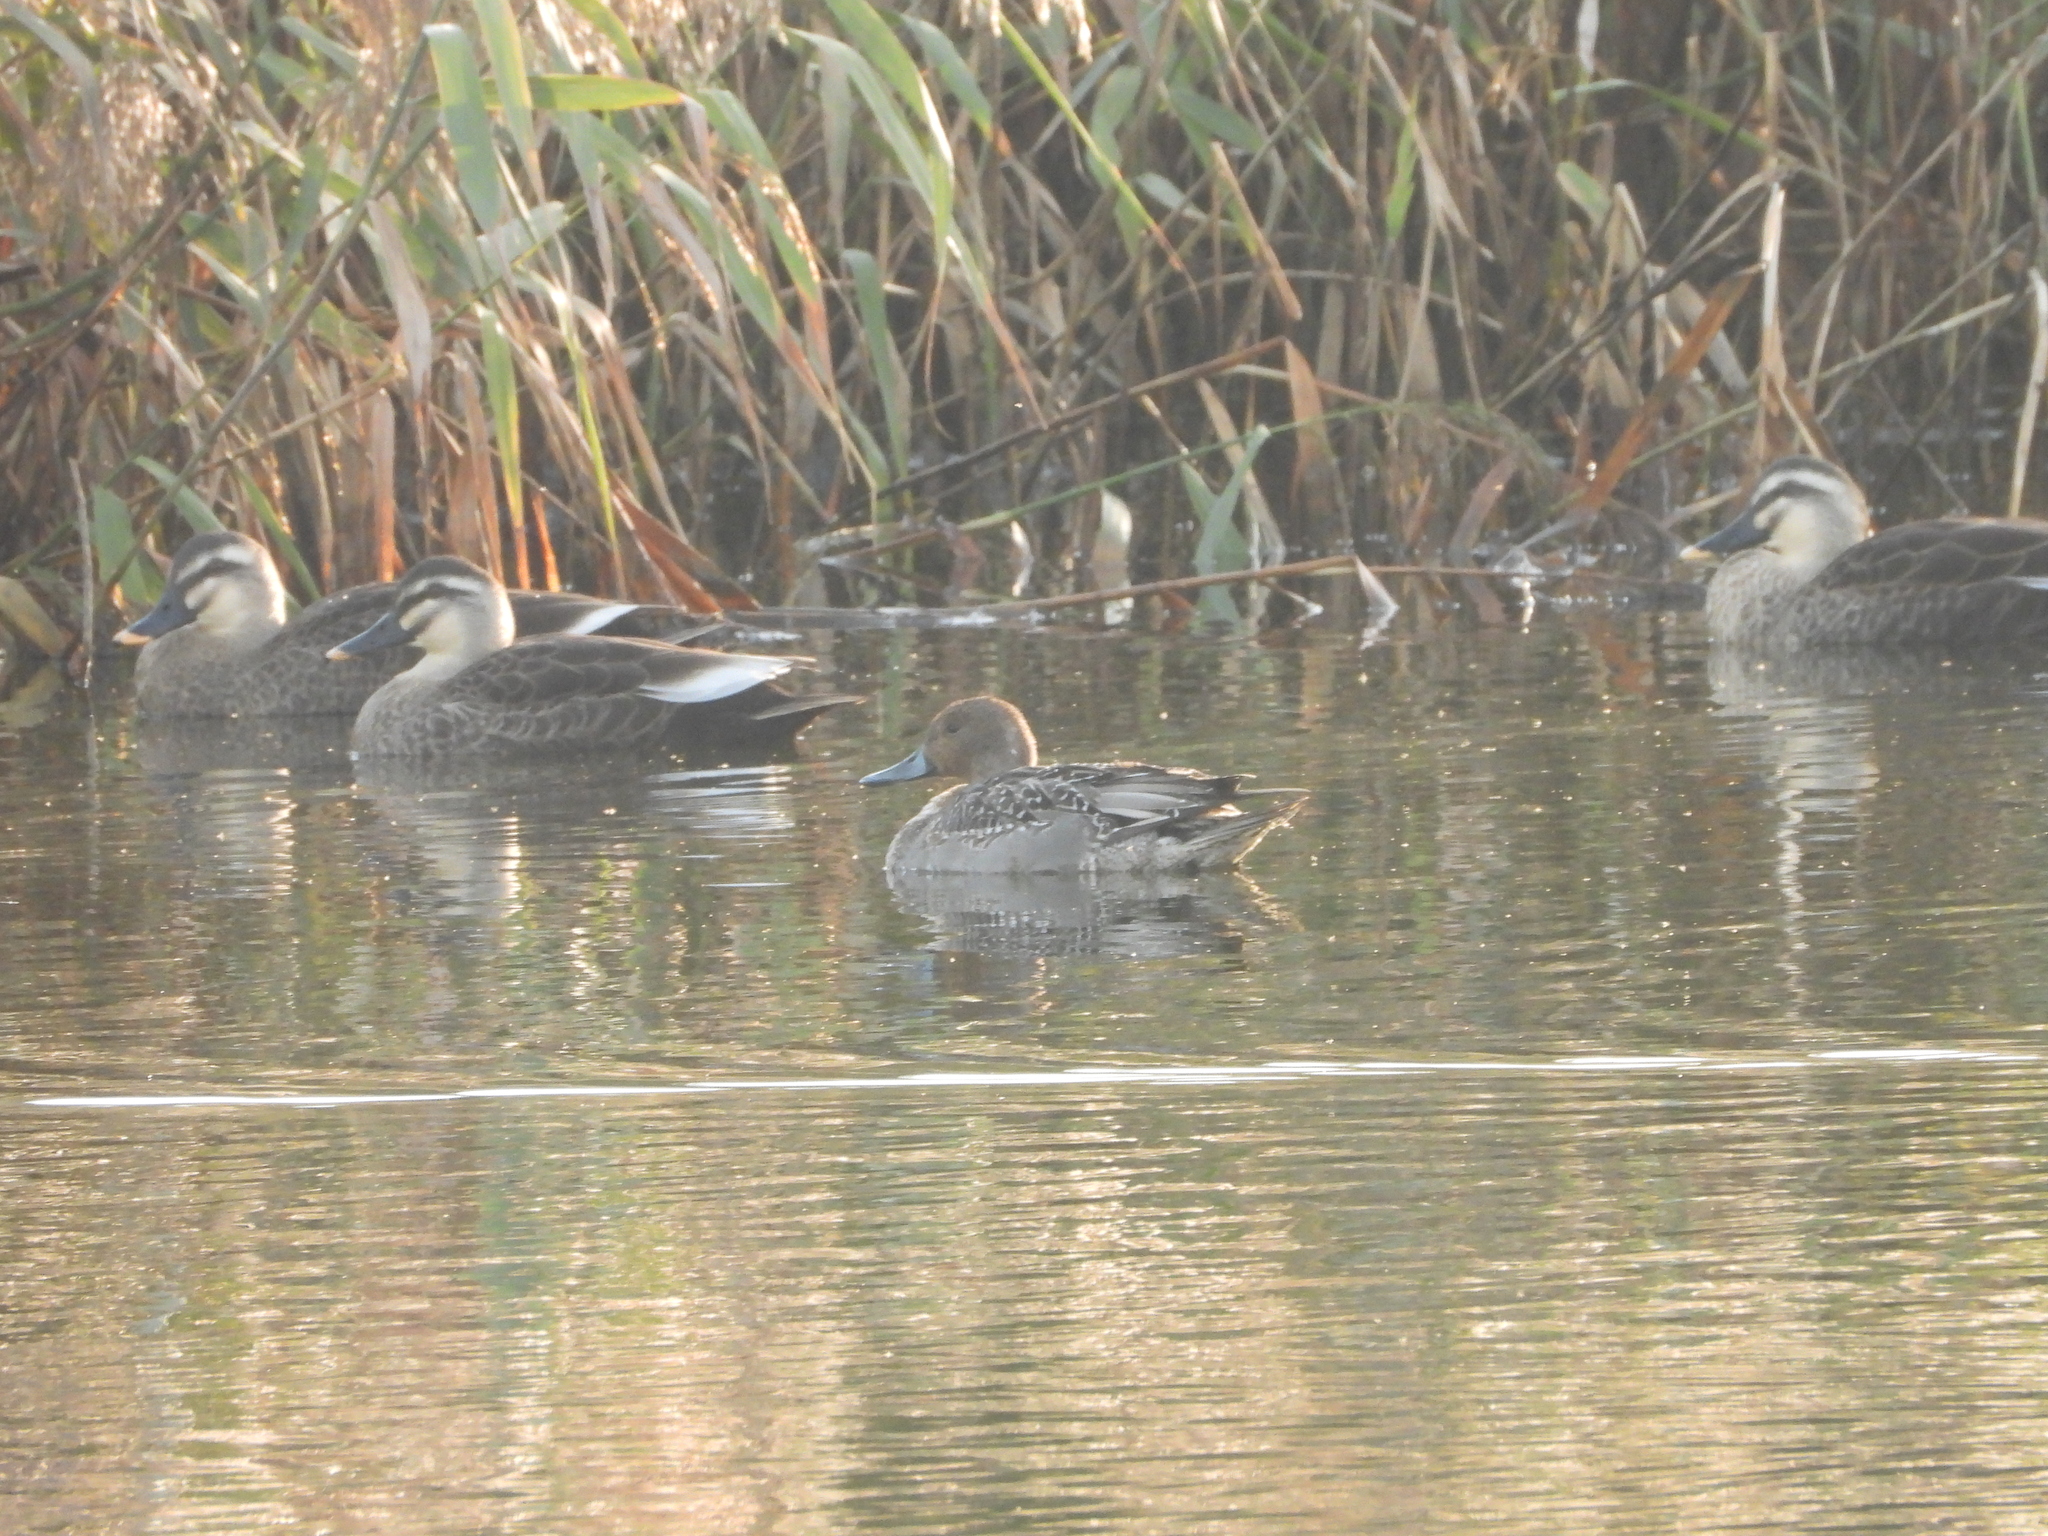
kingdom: Animalia
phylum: Chordata
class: Aves
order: Anseriformes
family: Anatidae
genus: Anas
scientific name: Anas acuta
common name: Northern pintail
